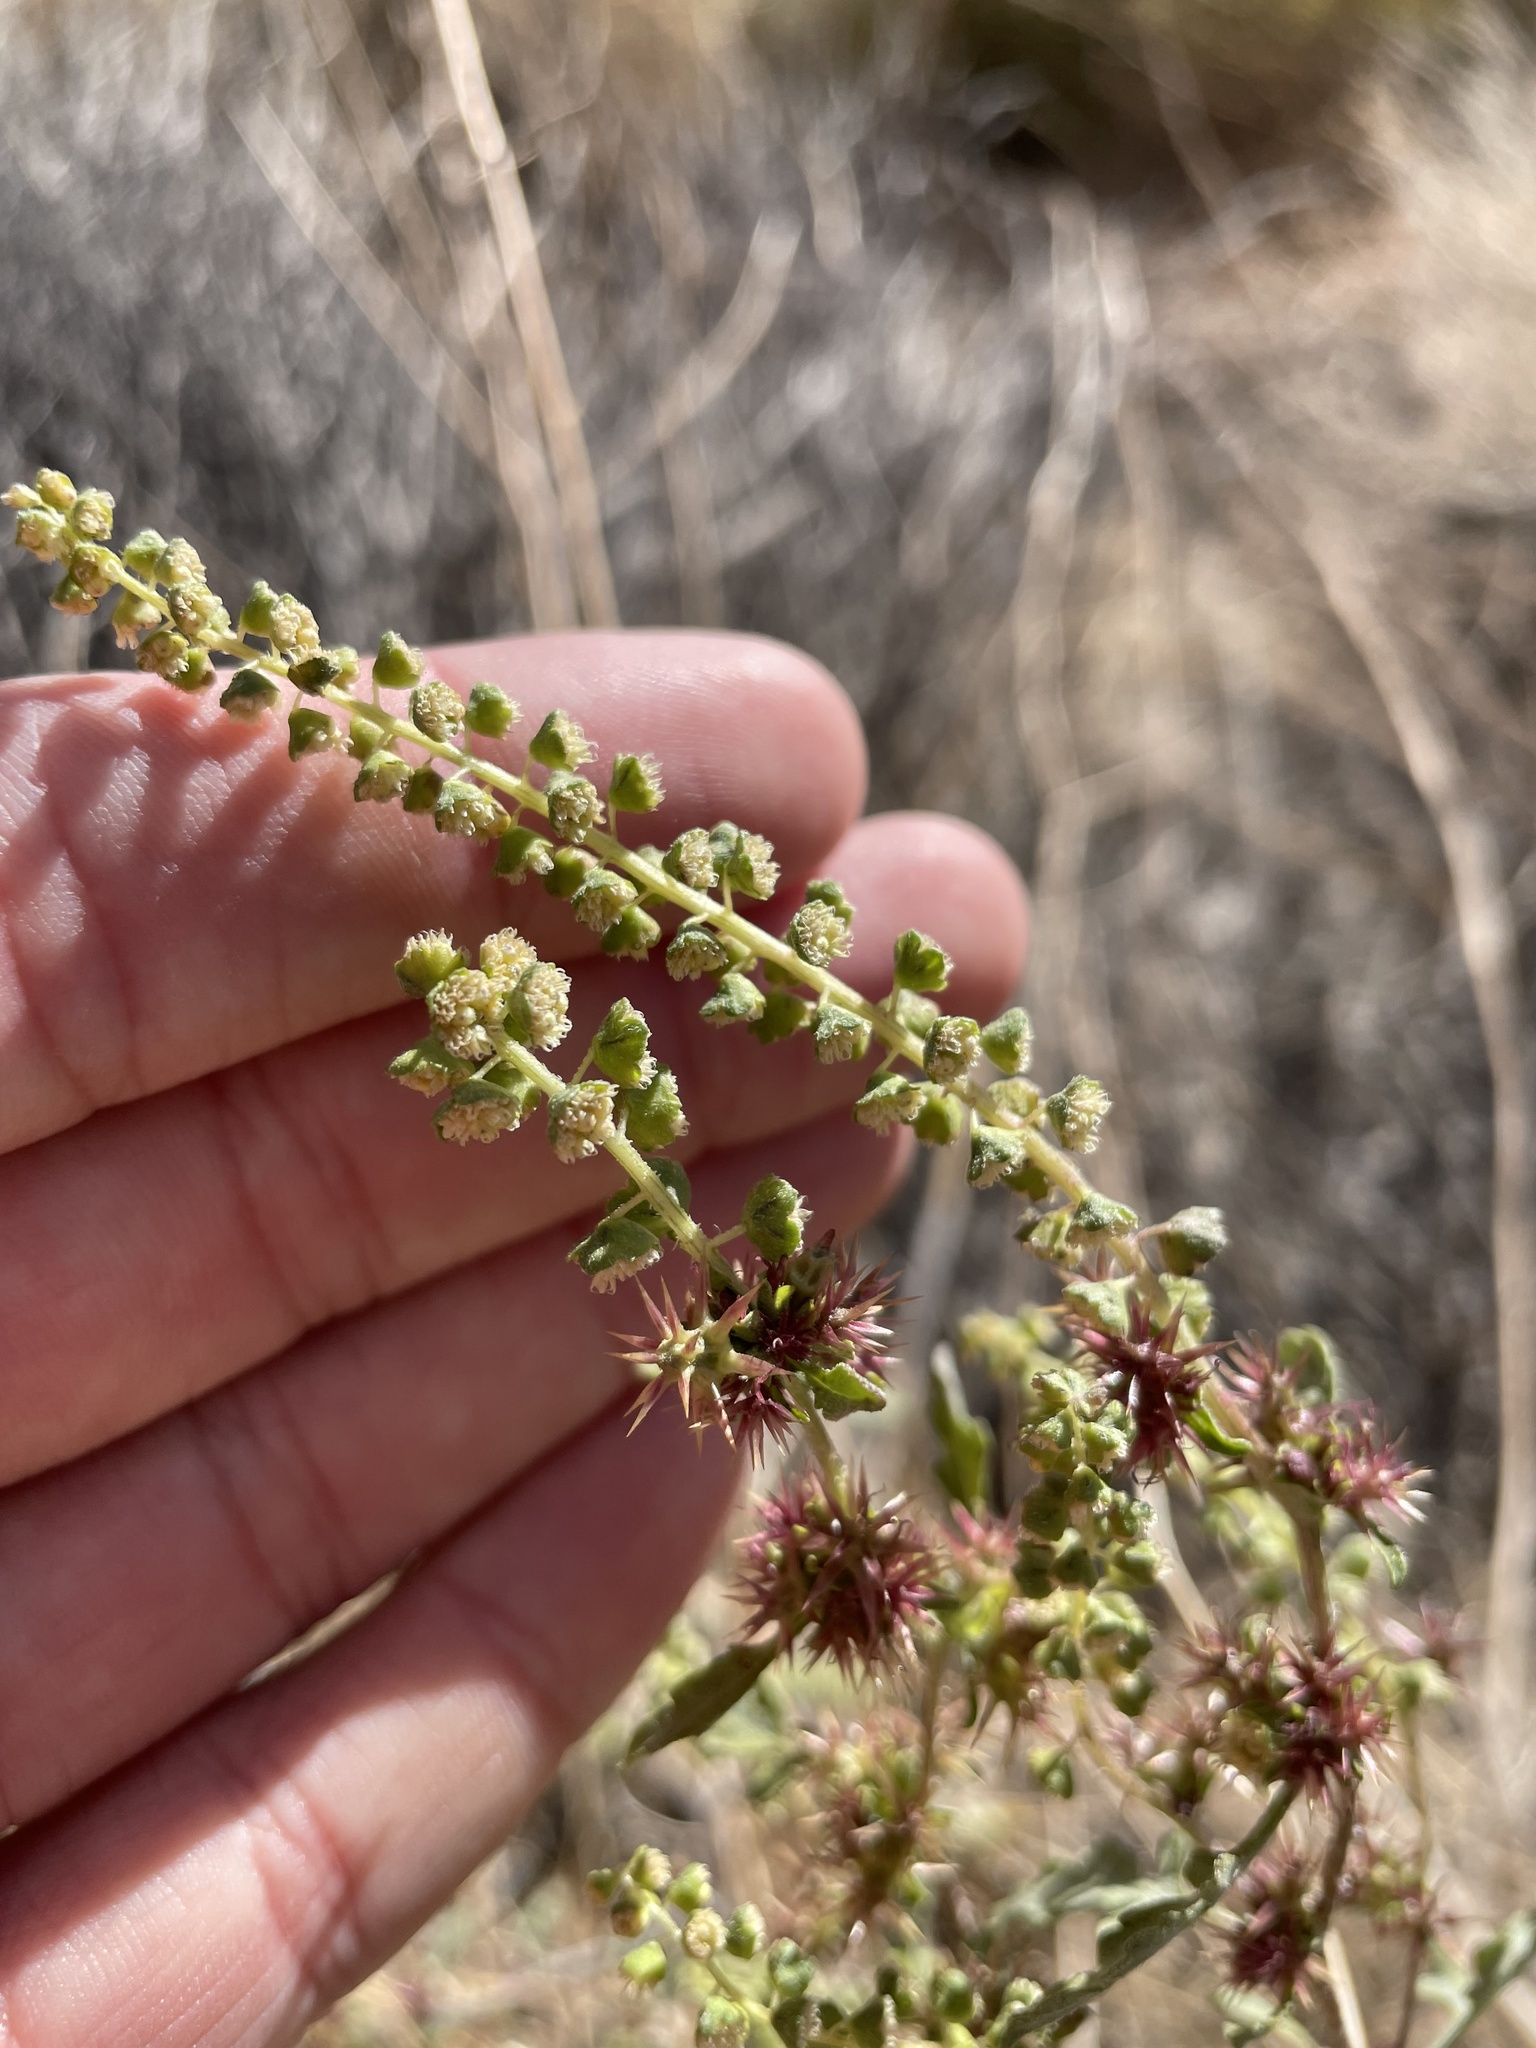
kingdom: Plantae
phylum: Tracheophyta
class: Magnoliopsida
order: Asterales
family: Asteraceae
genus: Ambrosia
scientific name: Ambrosia acanthicarpa
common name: Hooker's bur ragweed
